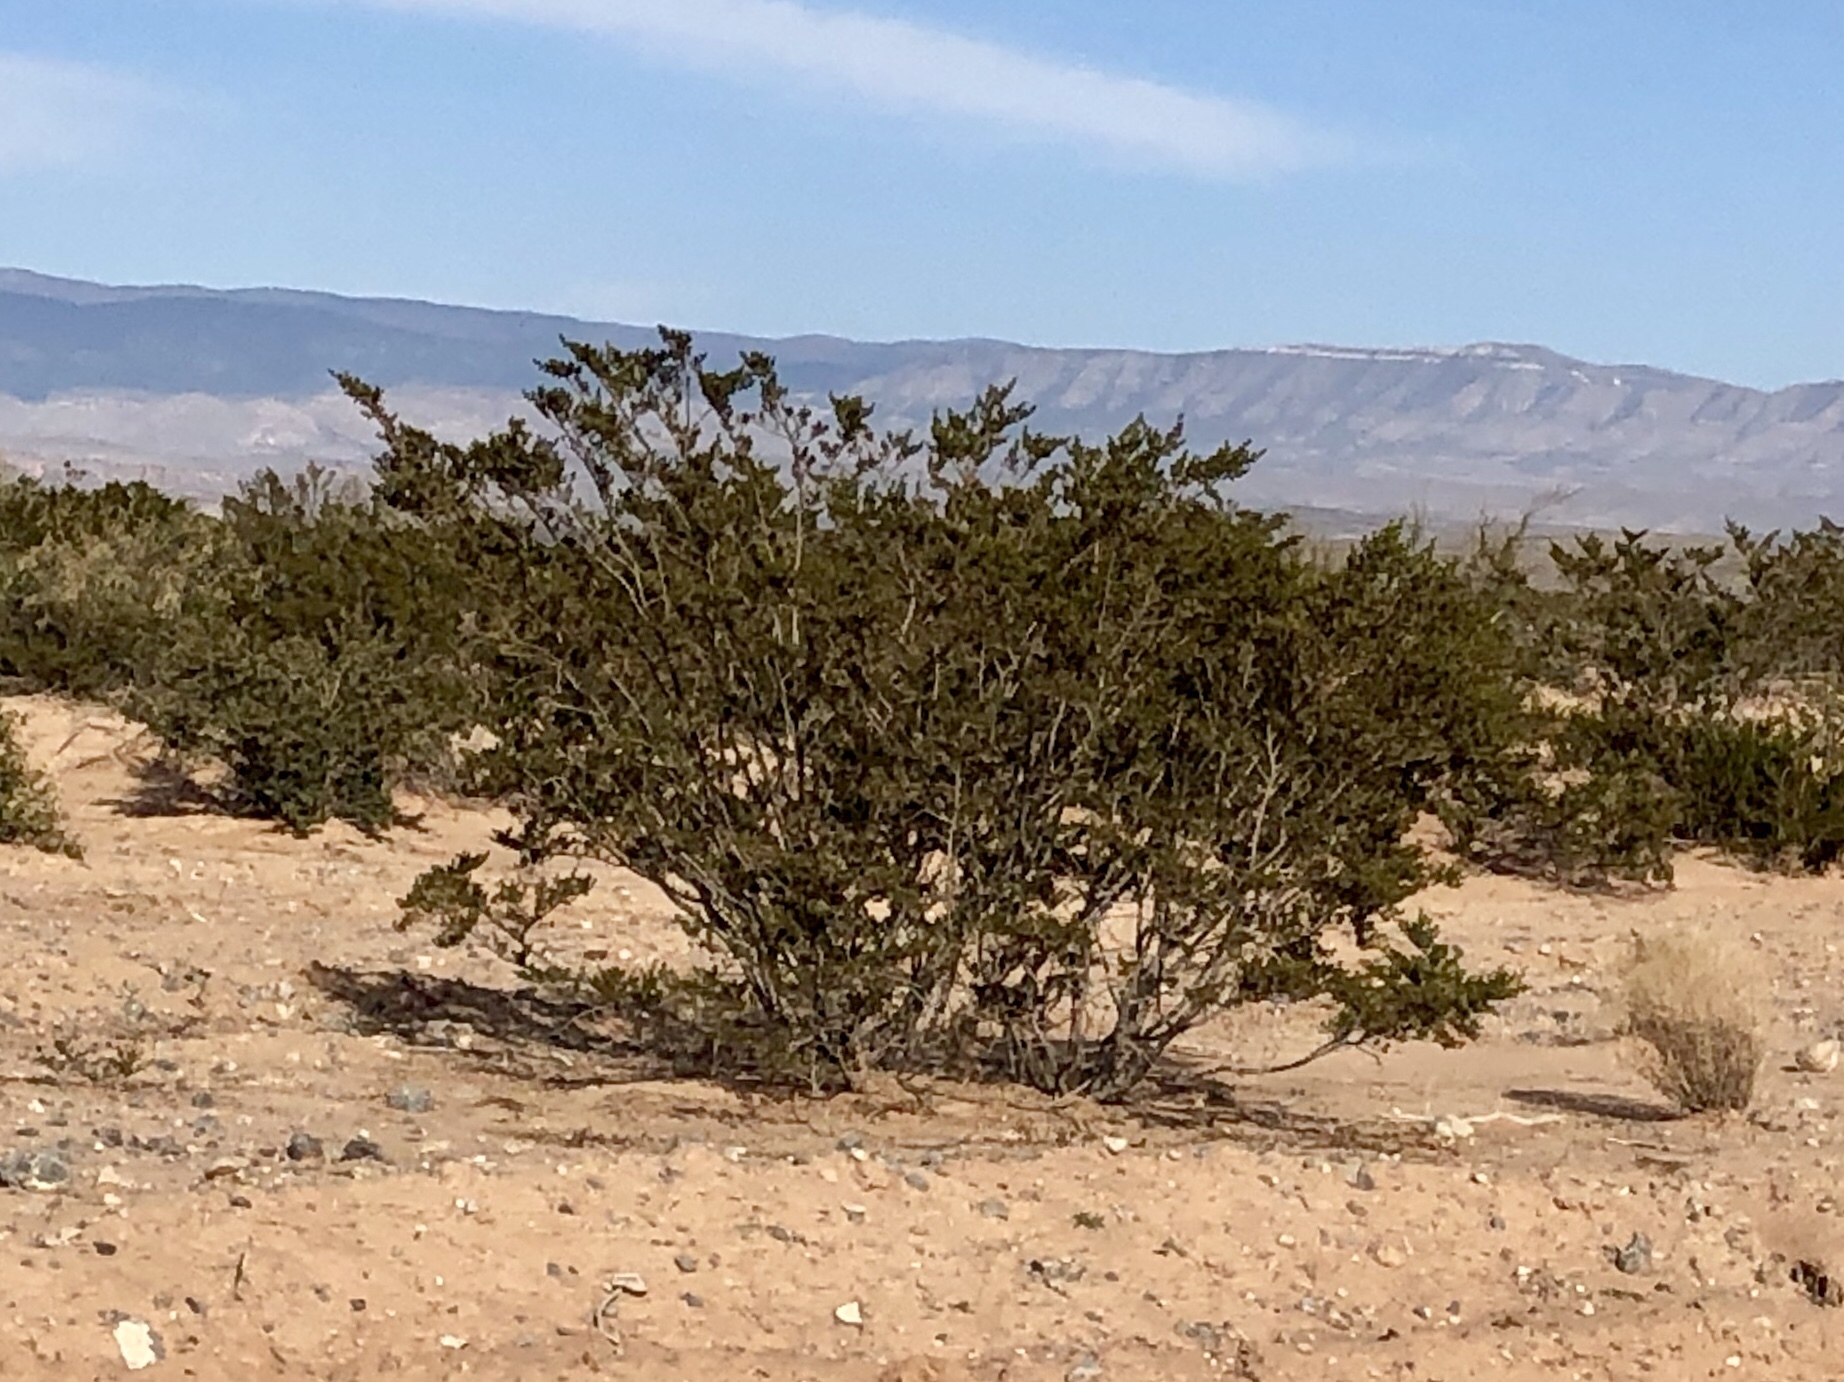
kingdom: Plantae
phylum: Tracheophyta
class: Magnoliopsida
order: Zygophyllales
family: Zygophyllaceae
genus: Larrea
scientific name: Larrea tridentata
